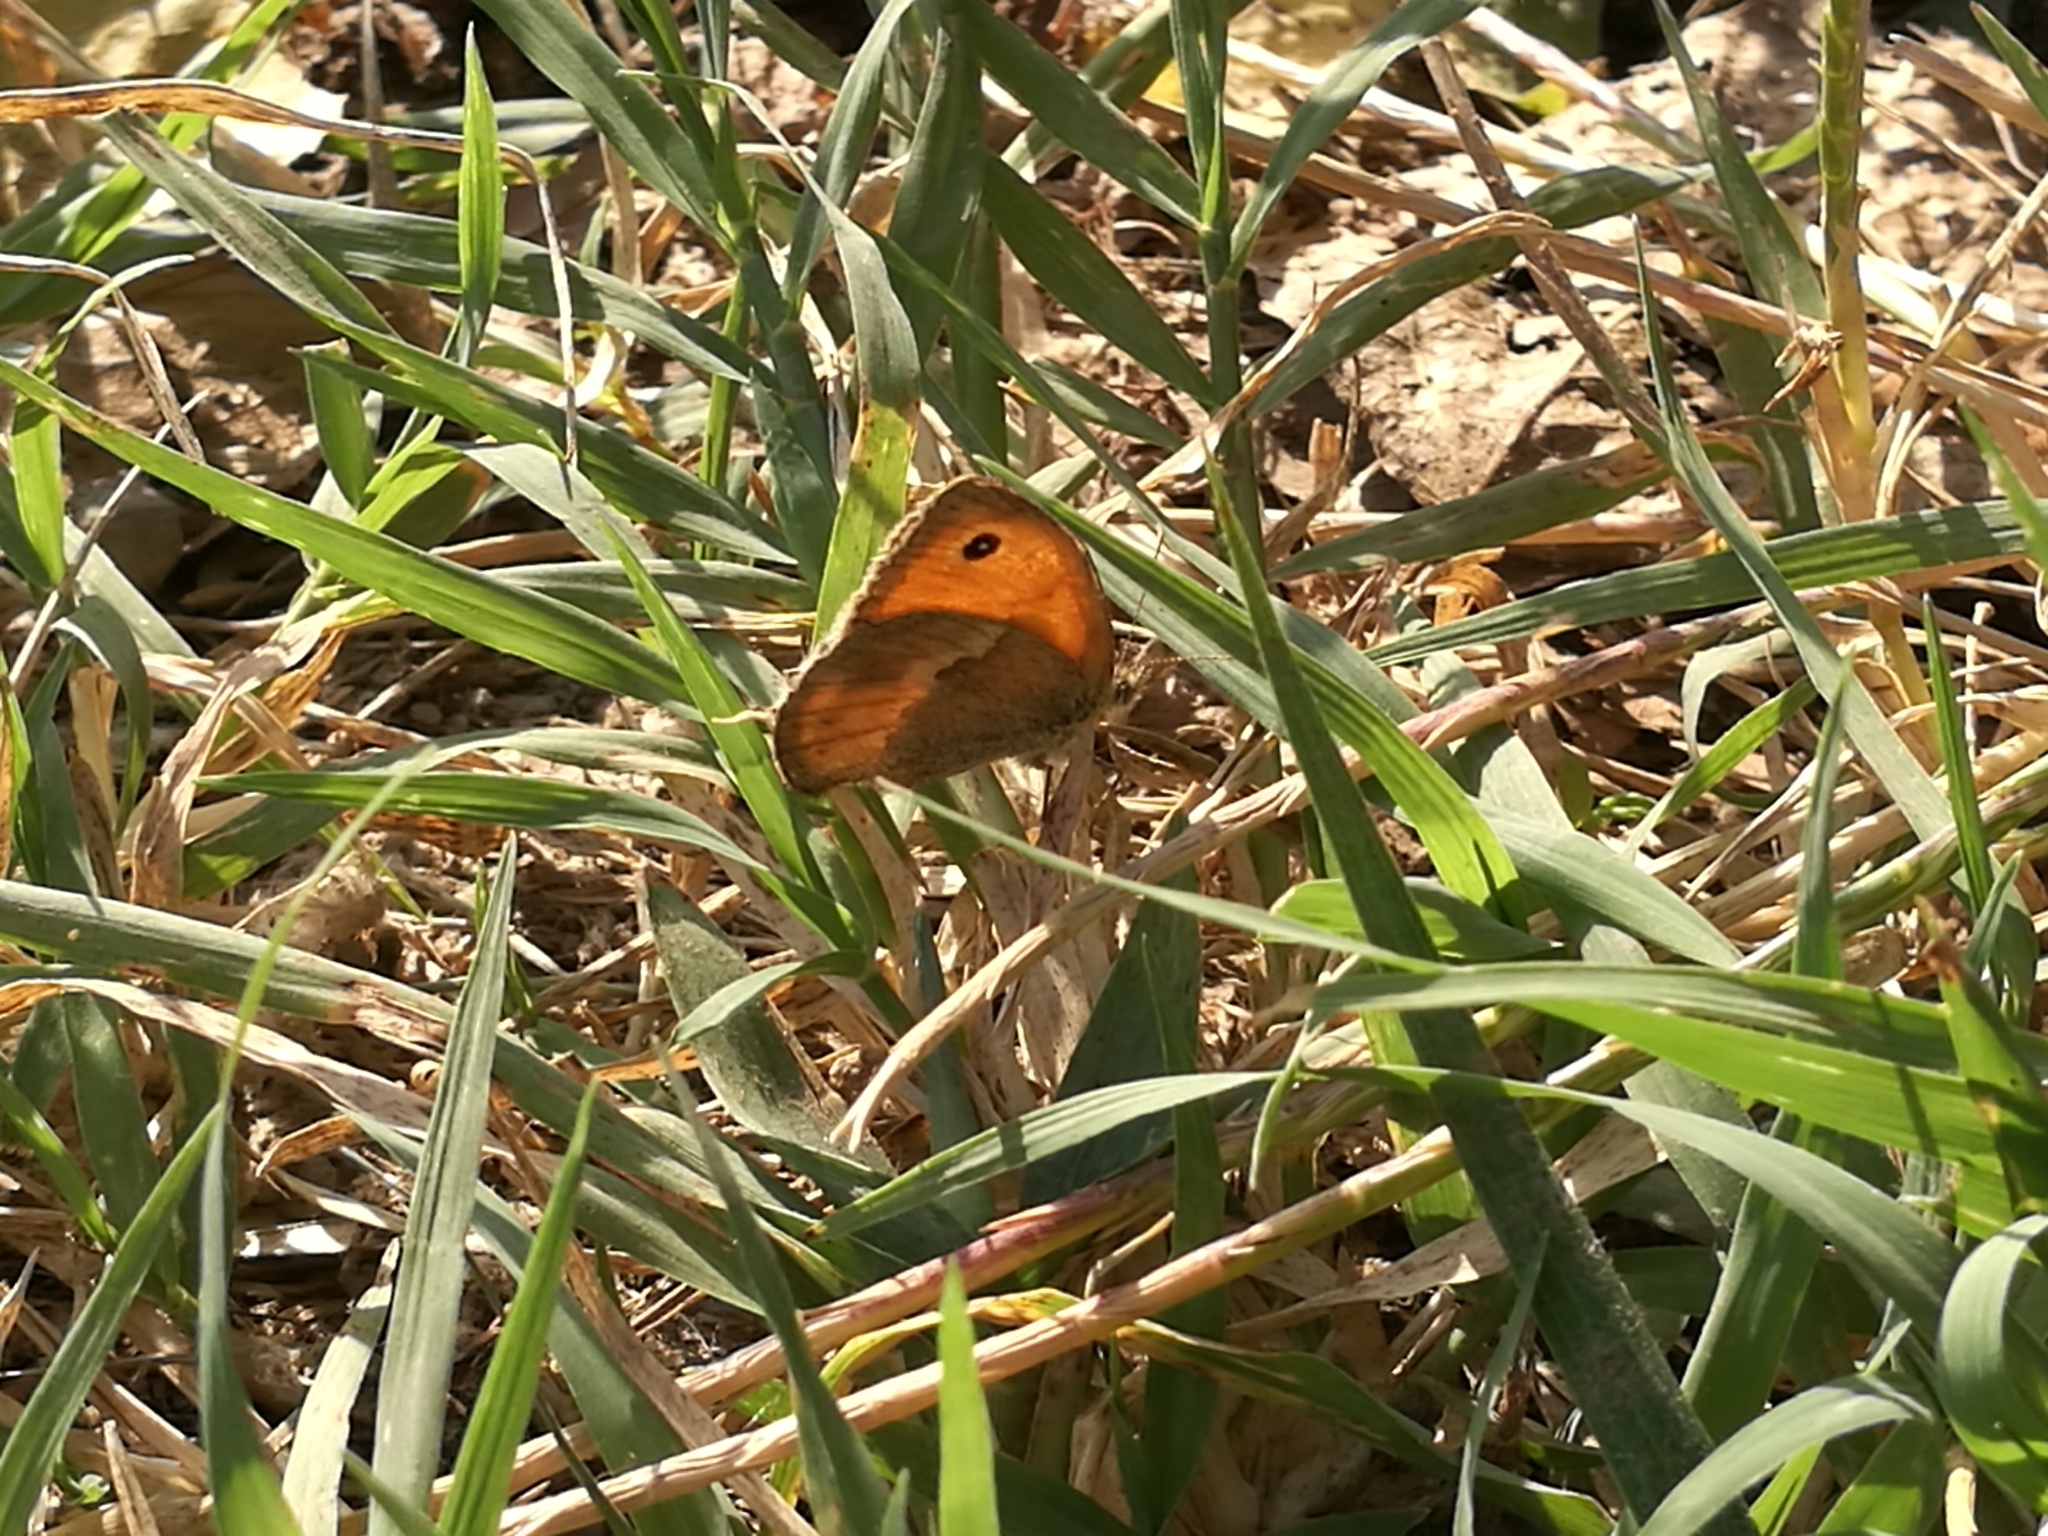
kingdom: Animalia
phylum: Arthropoda
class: Insecta
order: Lepidoptera
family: Nymphalidae
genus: Coenonympha
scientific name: Coenonympha pamphilus
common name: Small heath
